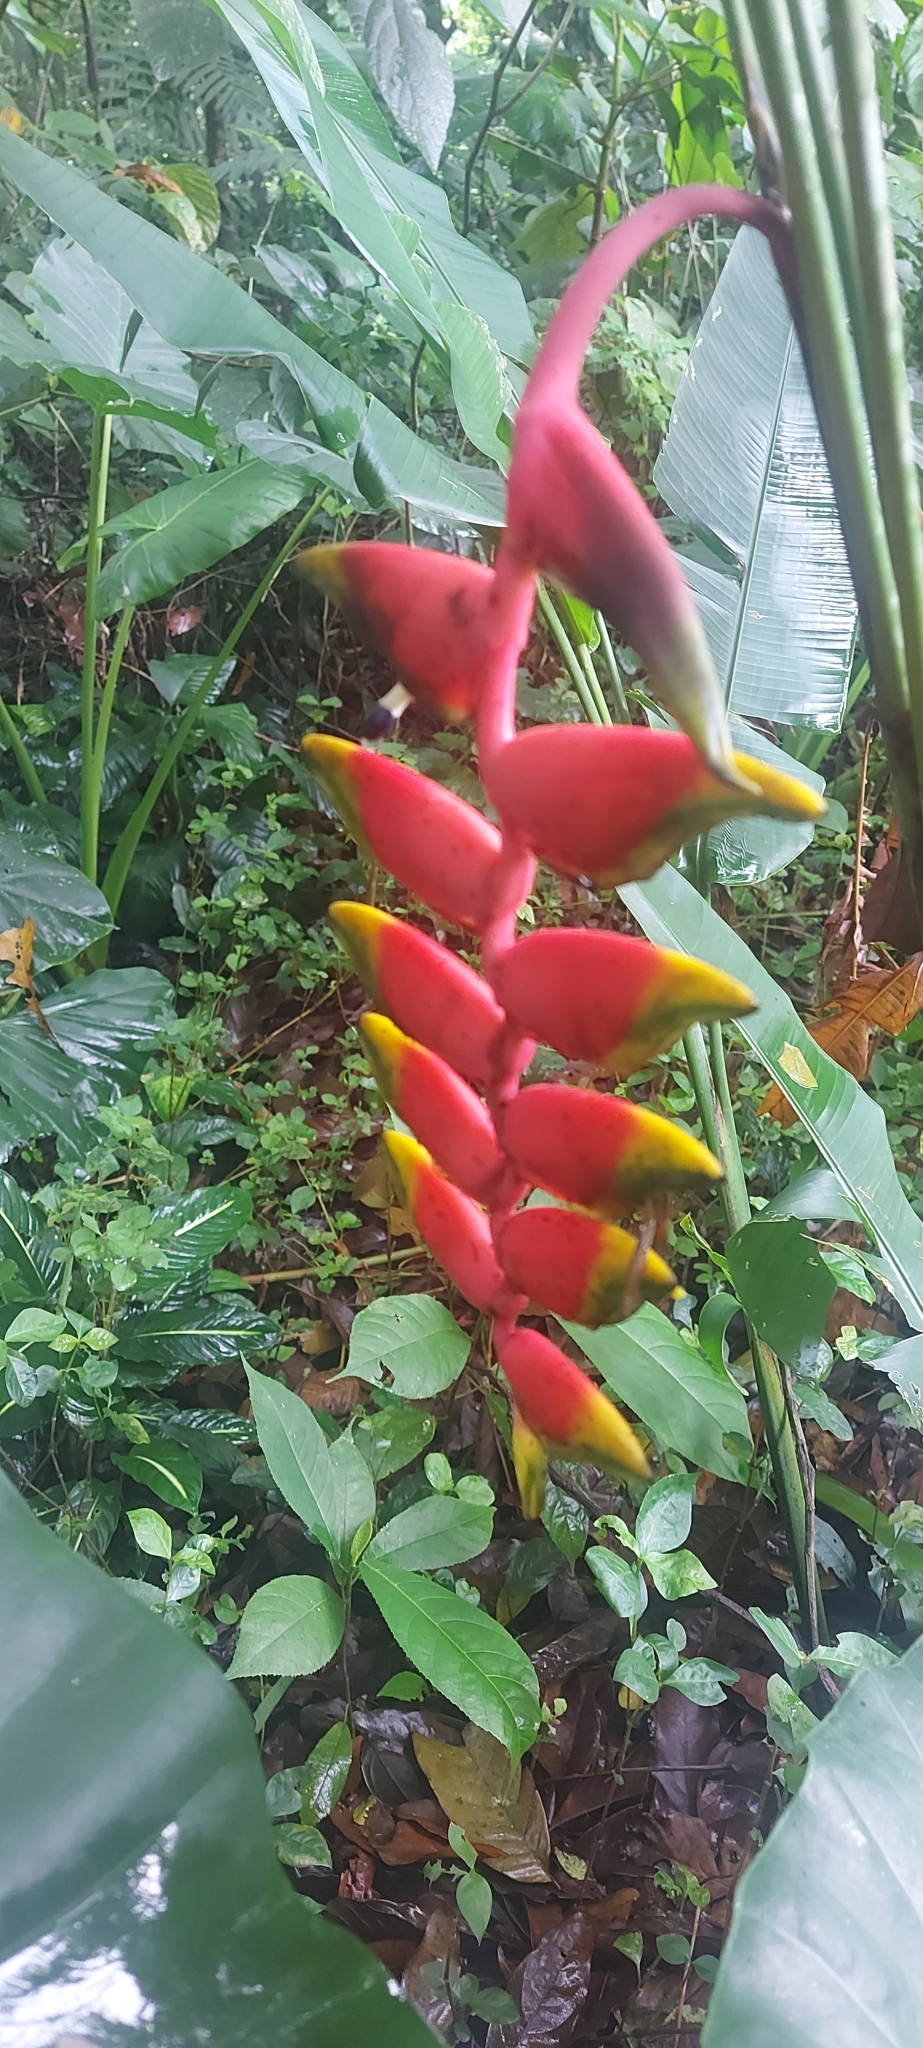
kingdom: Plantae
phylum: Tracheophyta
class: Liliopsida
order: Zingiberales
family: Heliconiaceae
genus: Heliconia
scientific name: Heliconia rostrata
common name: False bird of paradise
